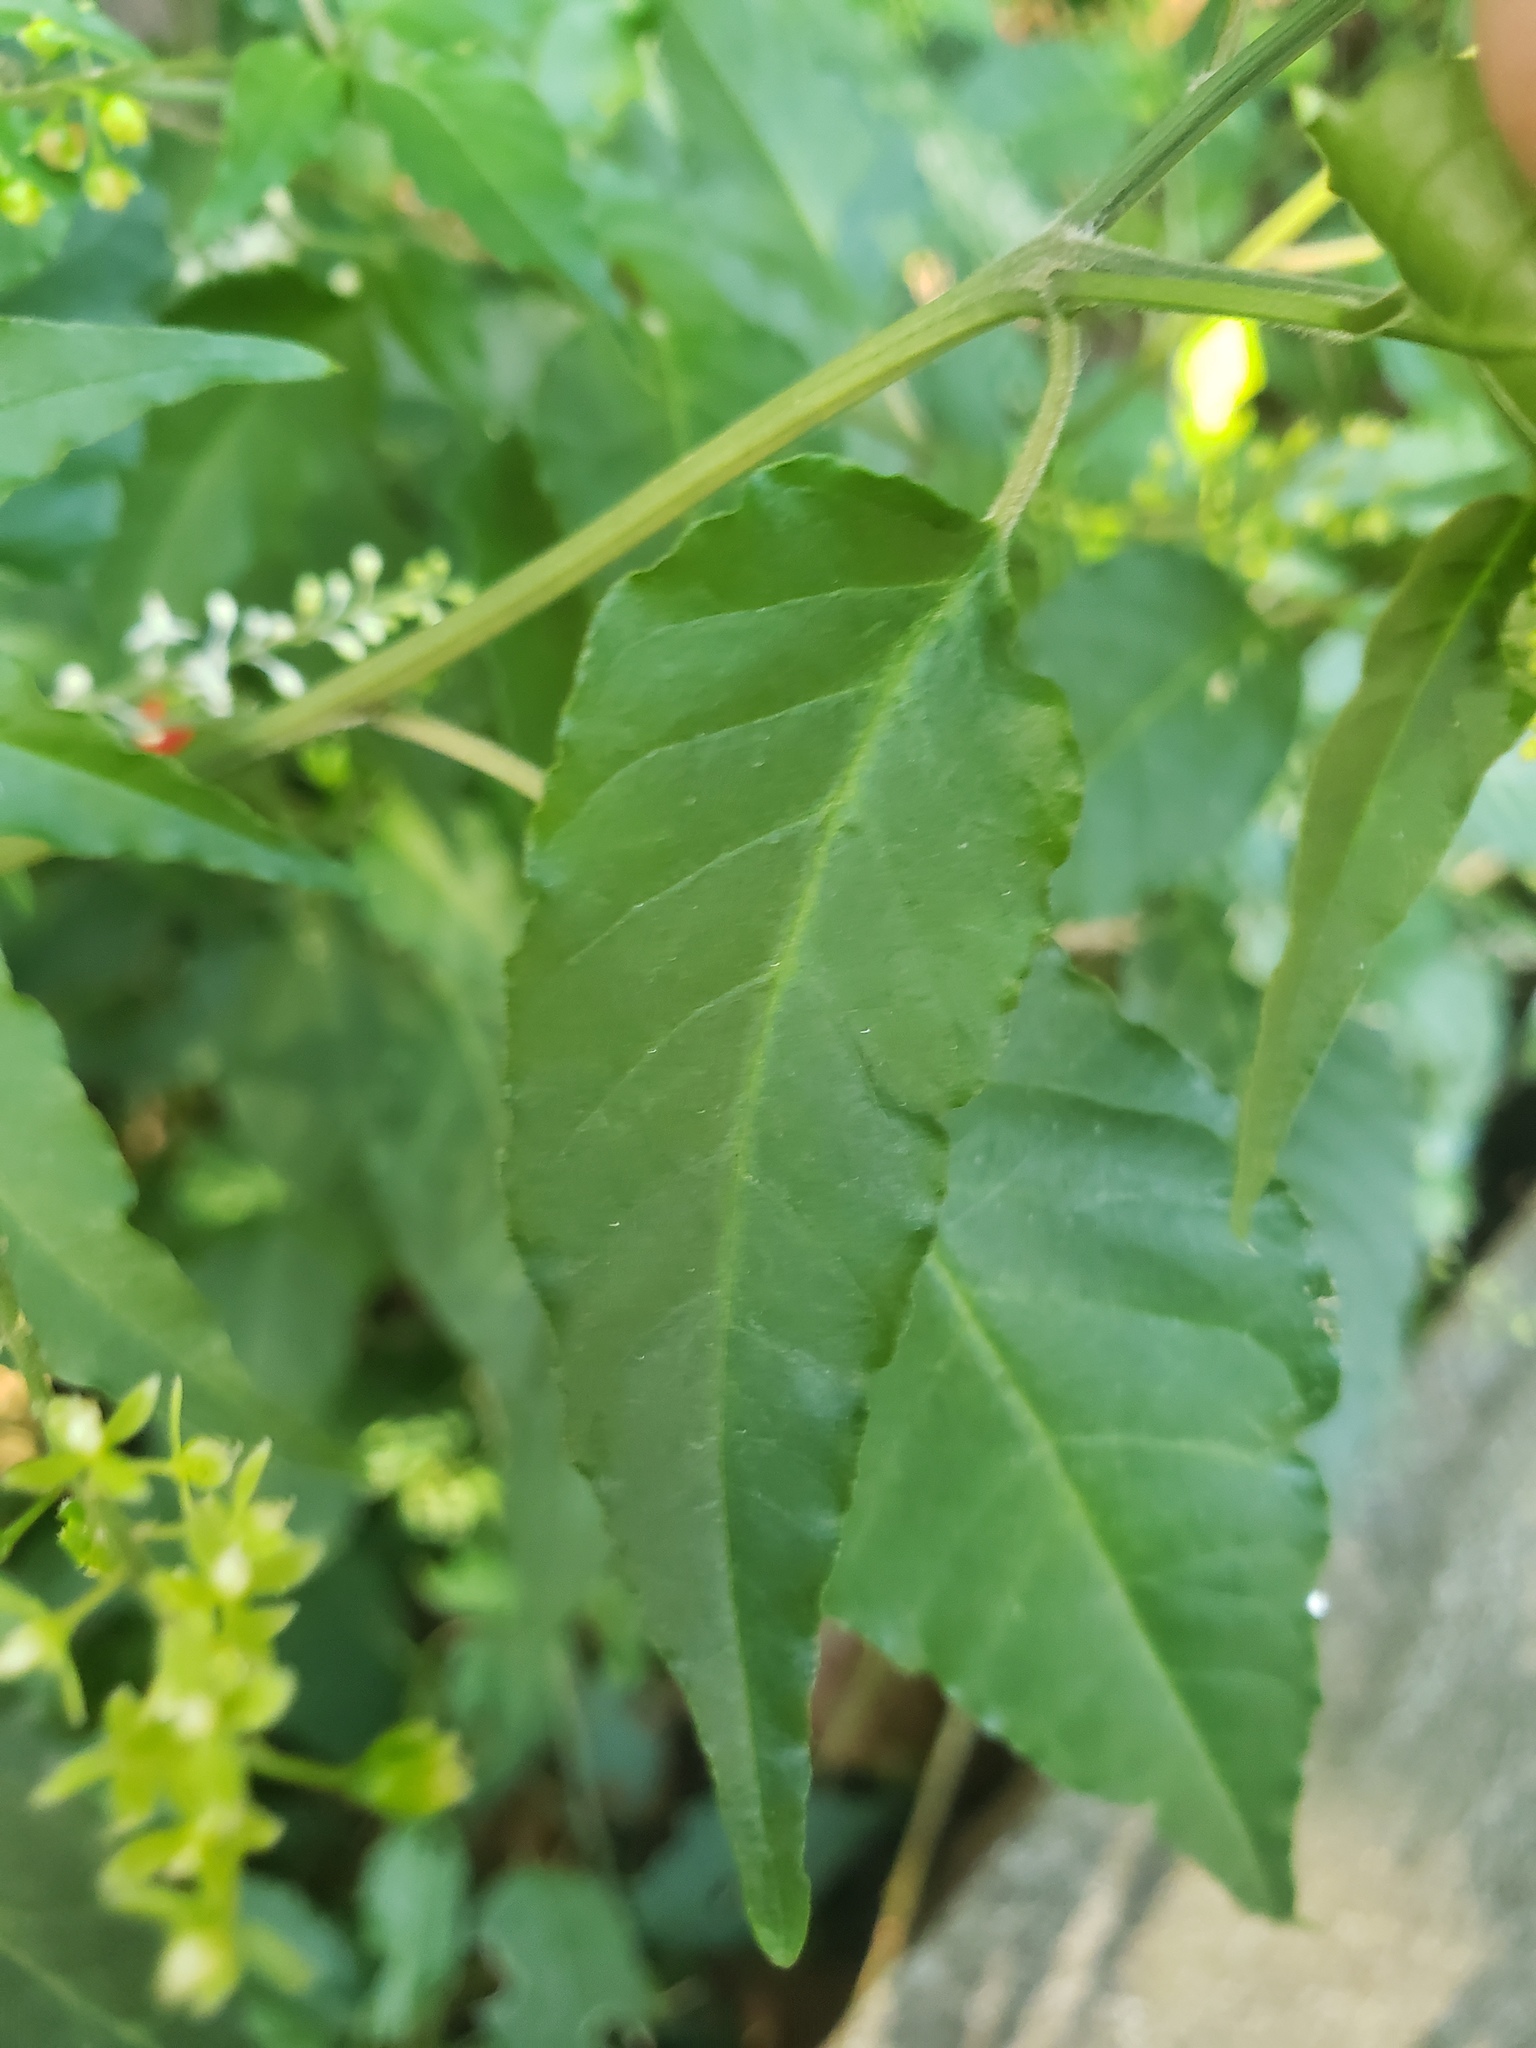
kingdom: Plantae
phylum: Tracheophyta
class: Magnoliopsida
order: Caryophyllales
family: Phytolaccaceae
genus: Rivina
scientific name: Rivina humilis
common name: Rougeplant
